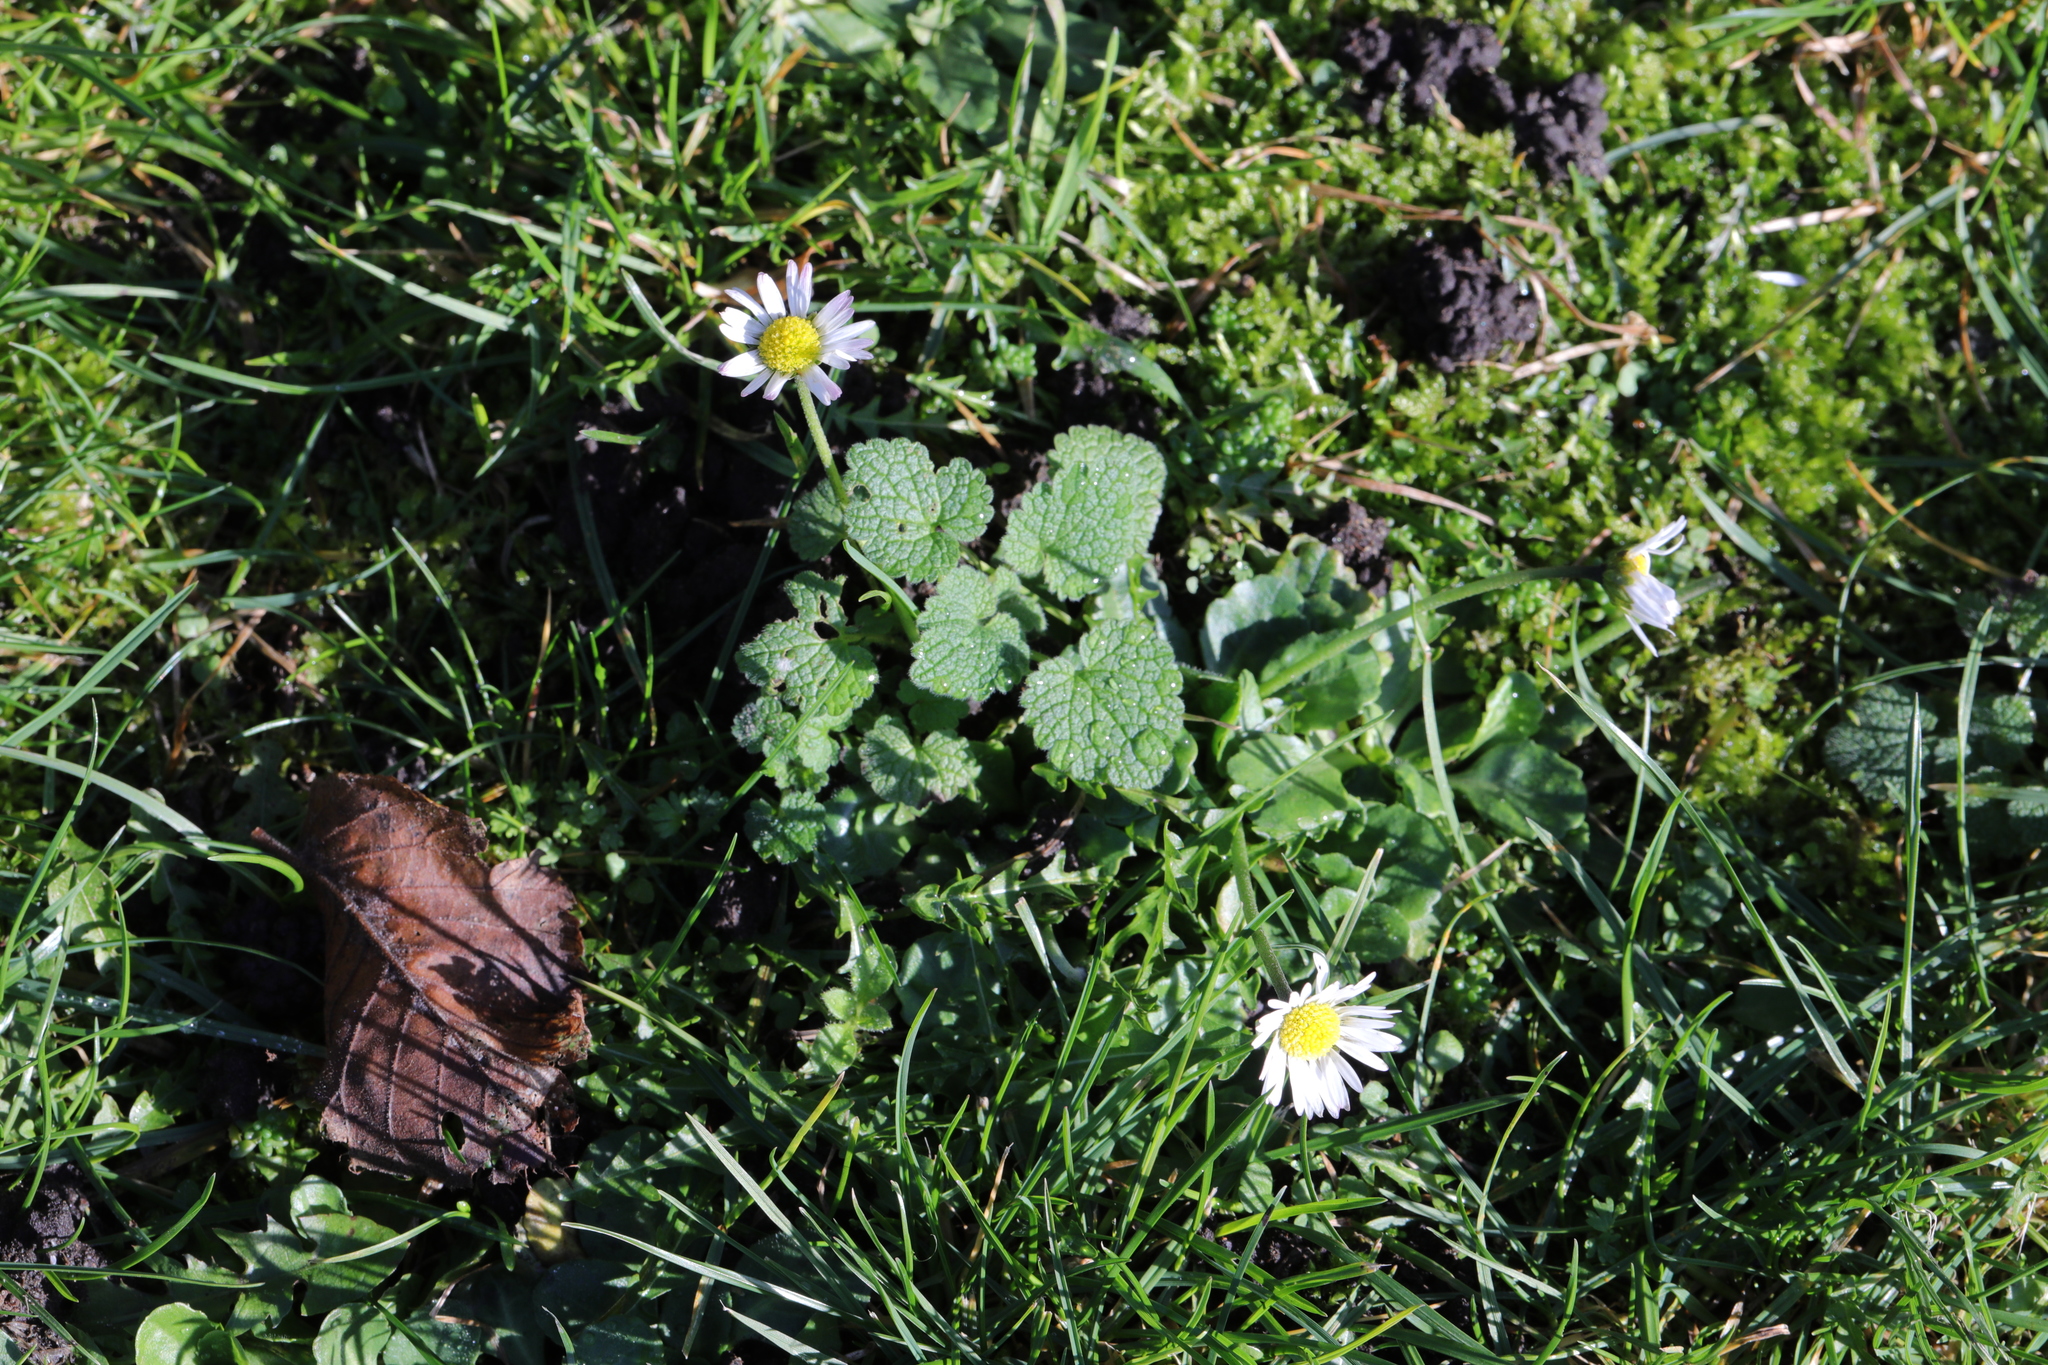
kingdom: Plantae
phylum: Tracheophyta
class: Magnoliopsida
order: Asterales
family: Asteraceae
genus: Bellis
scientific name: Bellis perennis
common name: Lawndaisy
